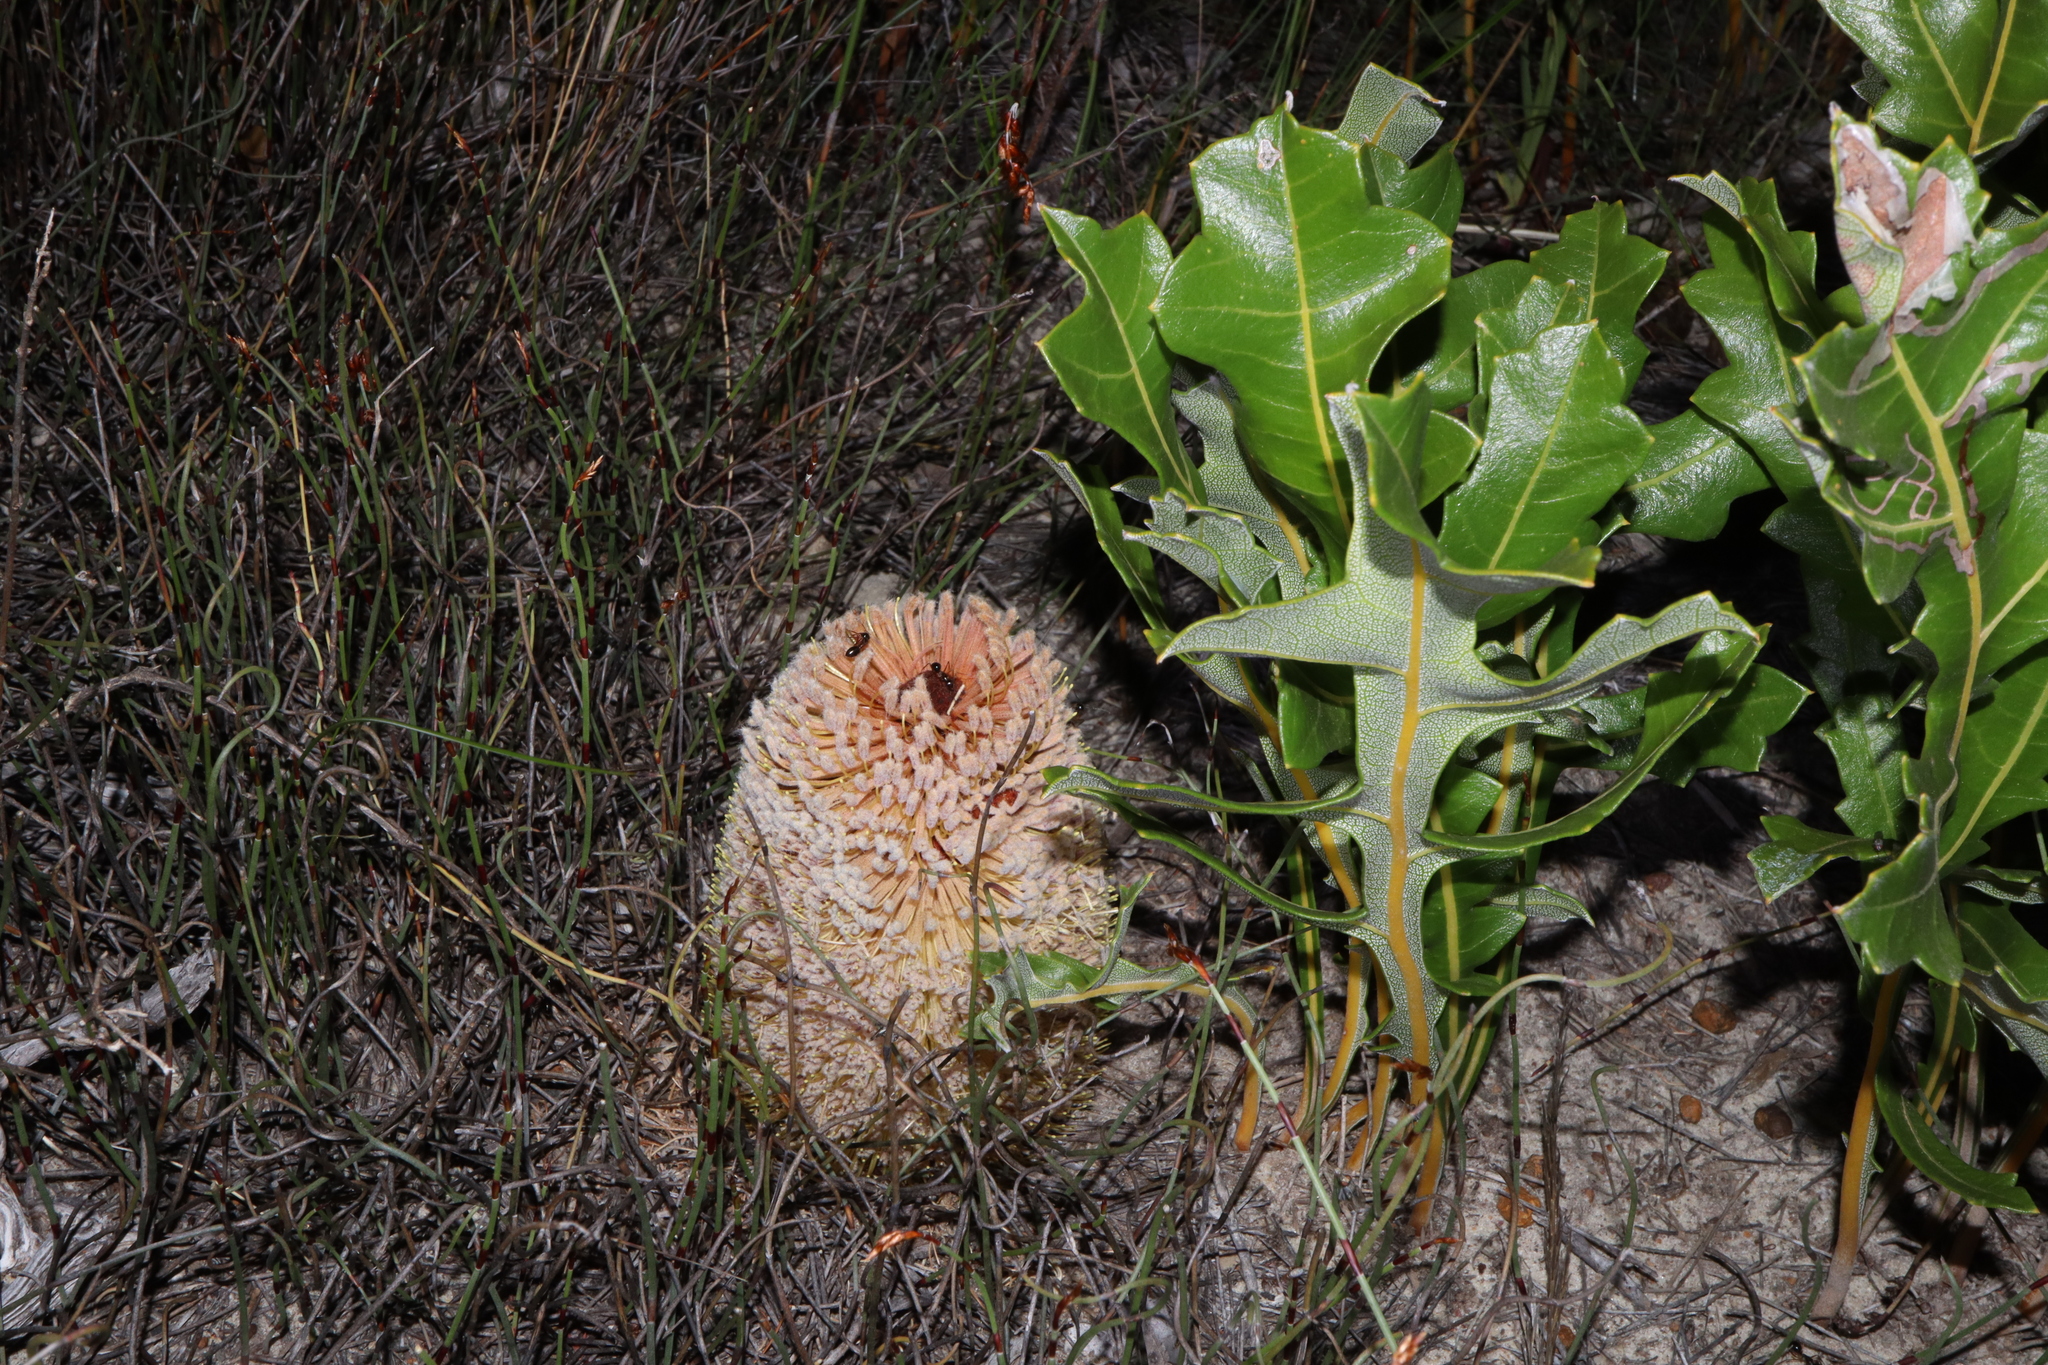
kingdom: Plantae
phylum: Tracheophyta
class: Magnoliopsida
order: Proteales
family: Proteaceae
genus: Banksia
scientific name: Banksia repens
